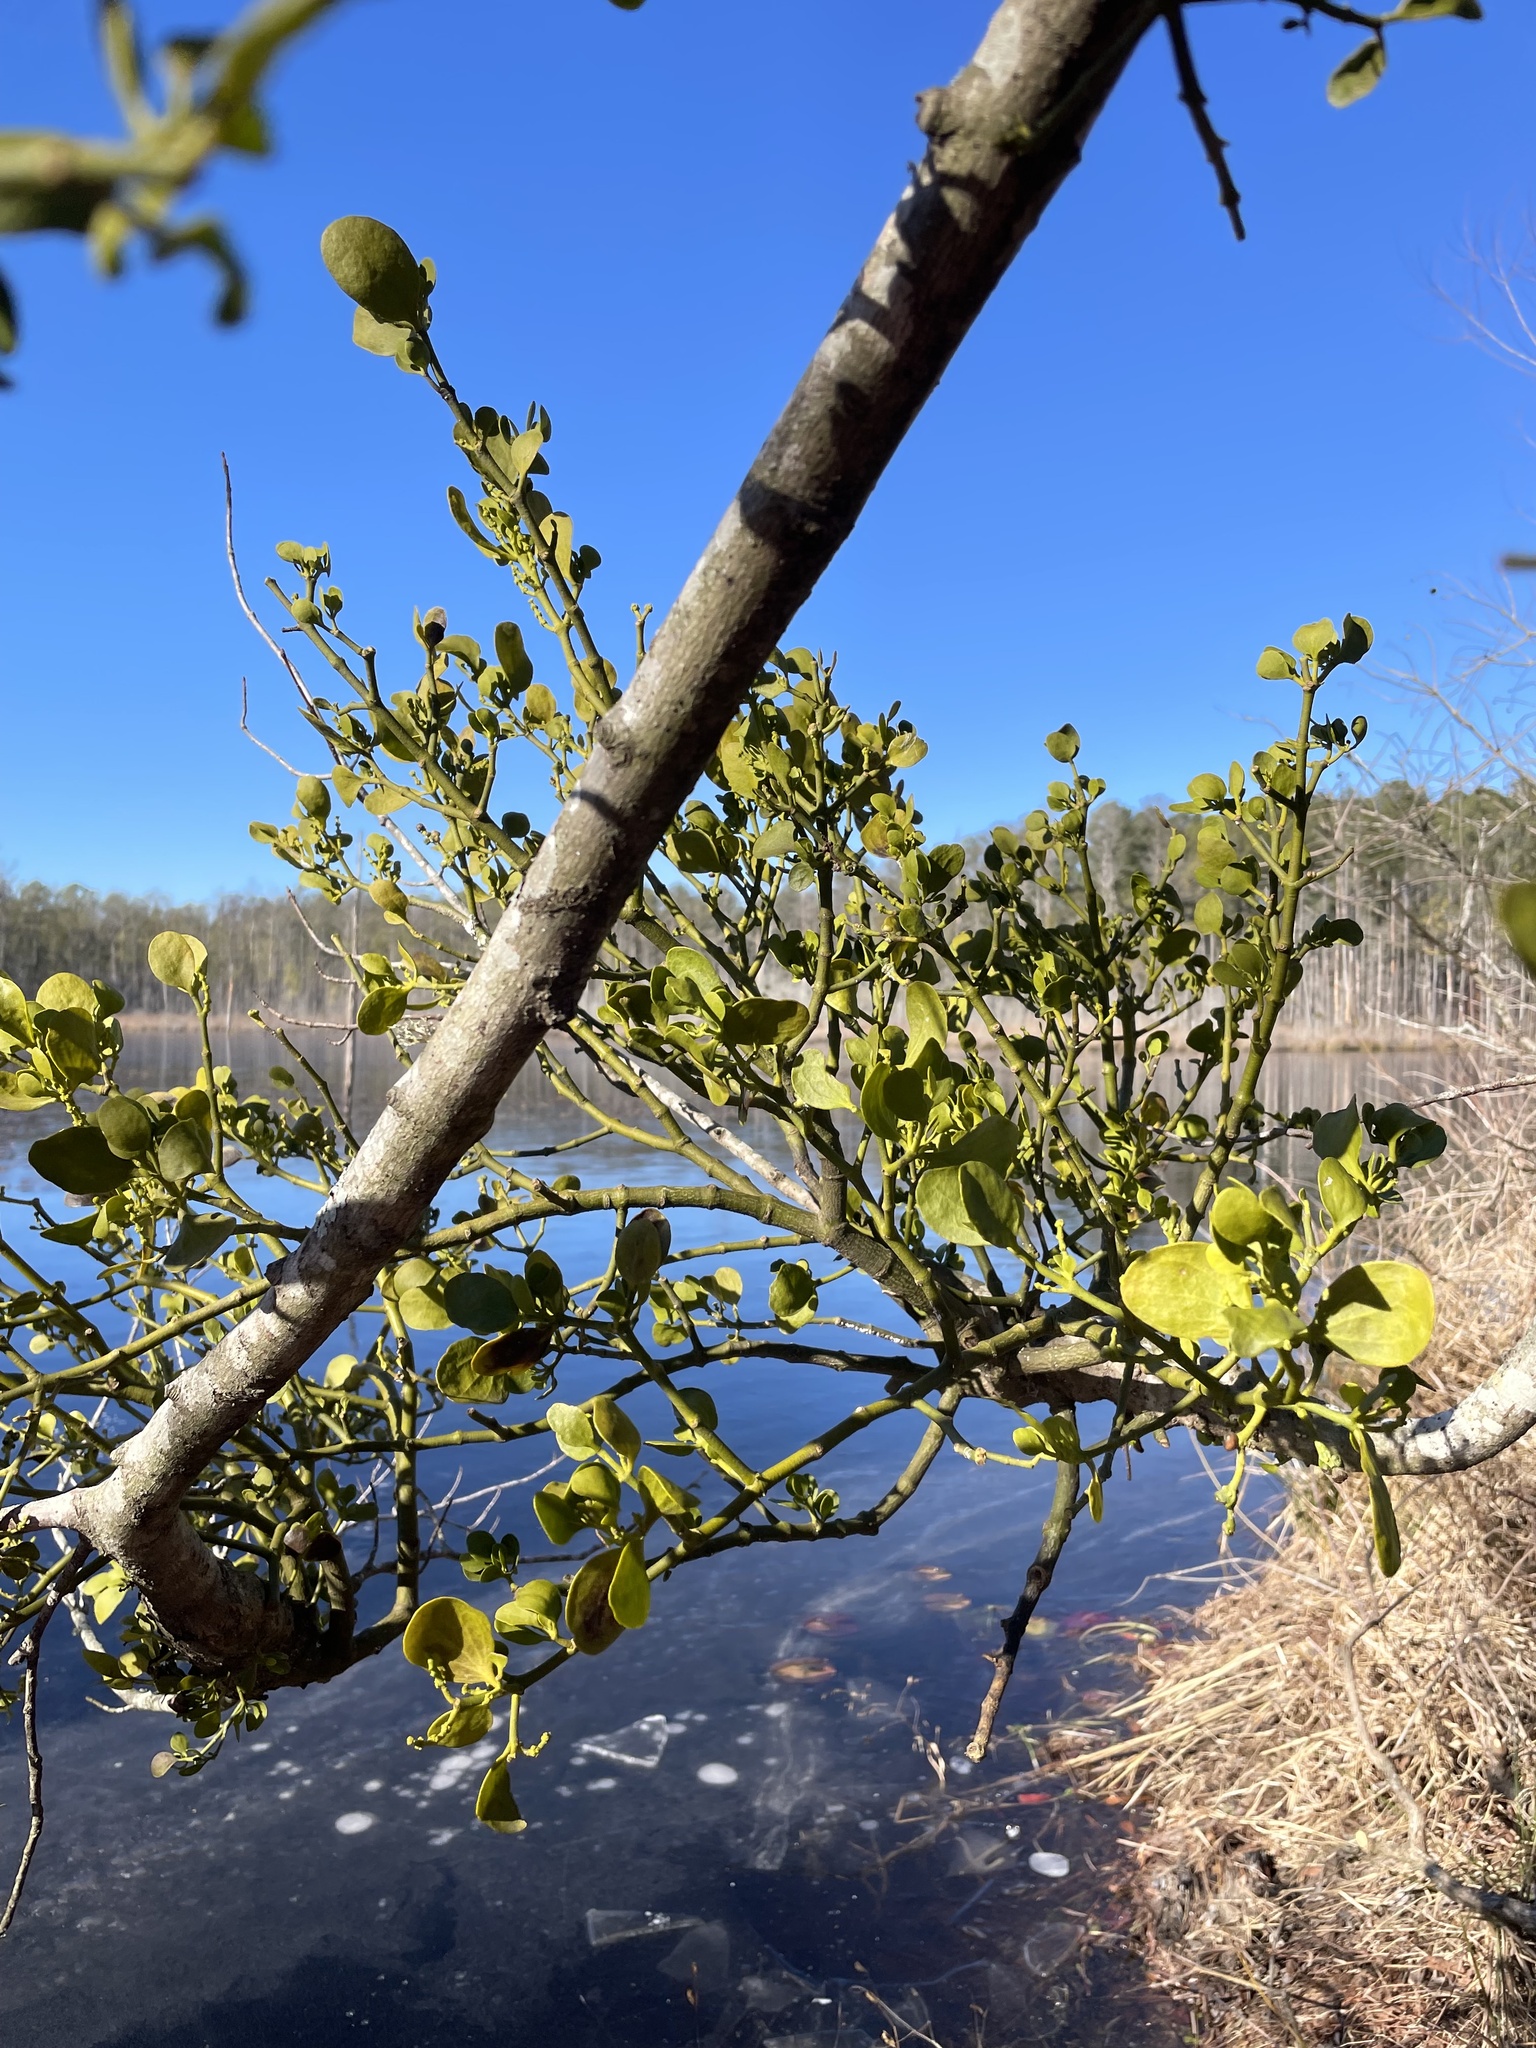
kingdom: Plantae
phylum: Tracheophyta
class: Magnoliopsida
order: Santalales
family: Viscaceae
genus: Phoradendron
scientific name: Phoradendron leucarpum
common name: Pacific mistletoe
